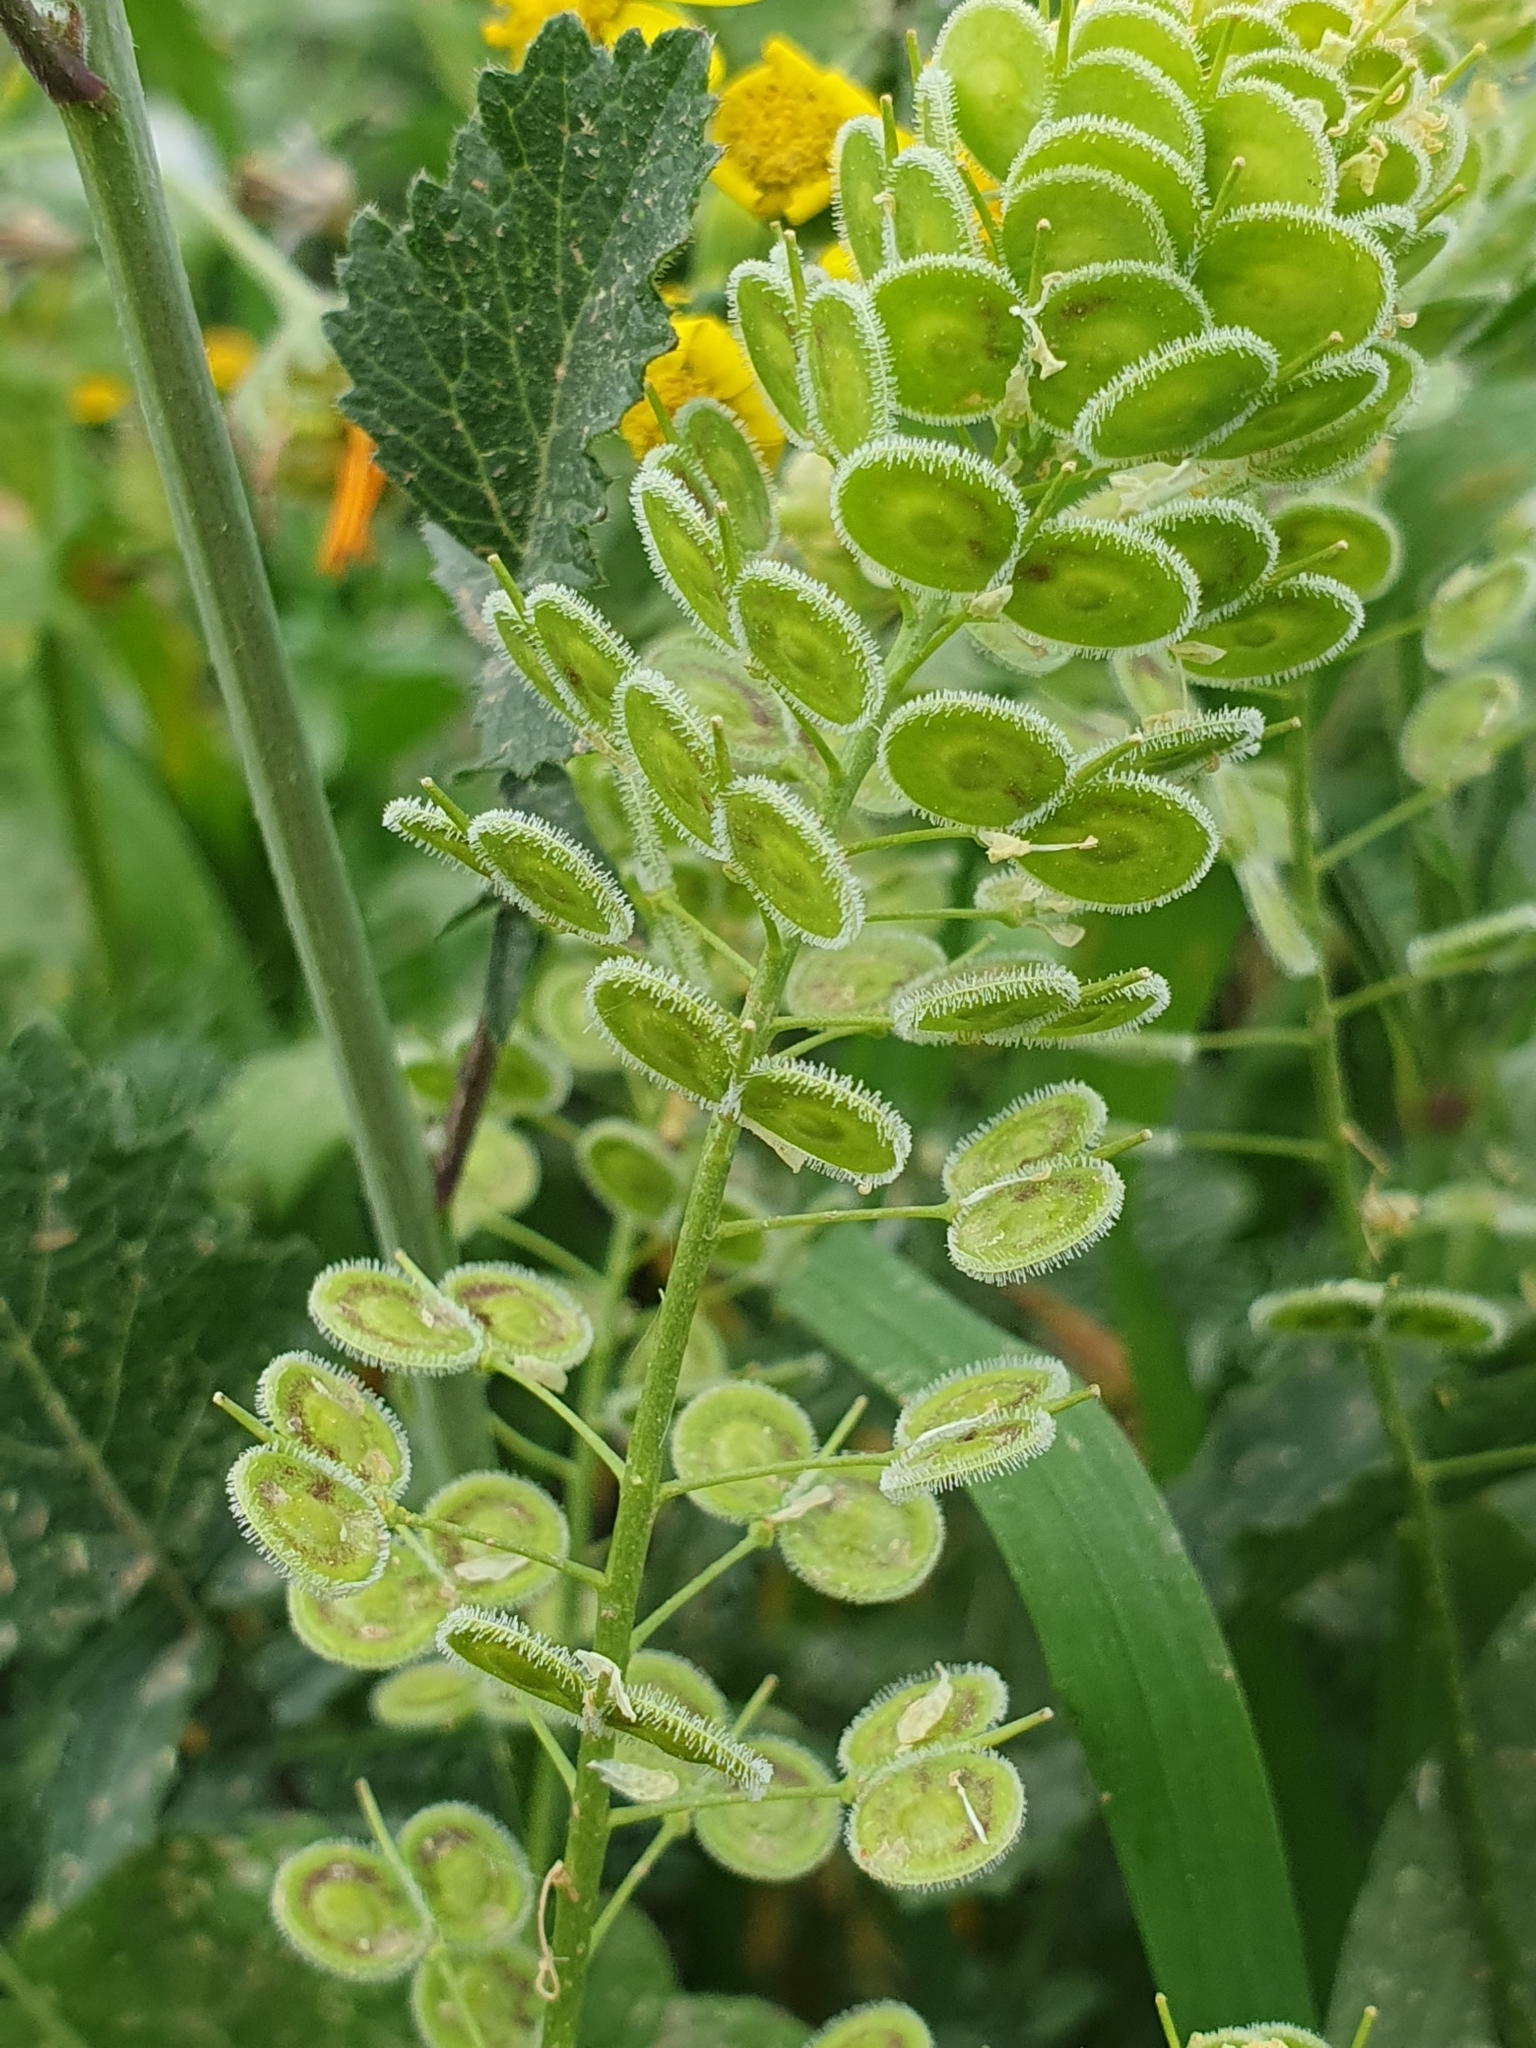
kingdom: Plantae
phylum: Tracheophyta
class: Magnoliopsida
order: Brassicales
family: Brassicaceae
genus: Biscutella
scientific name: Biscutella didyma
